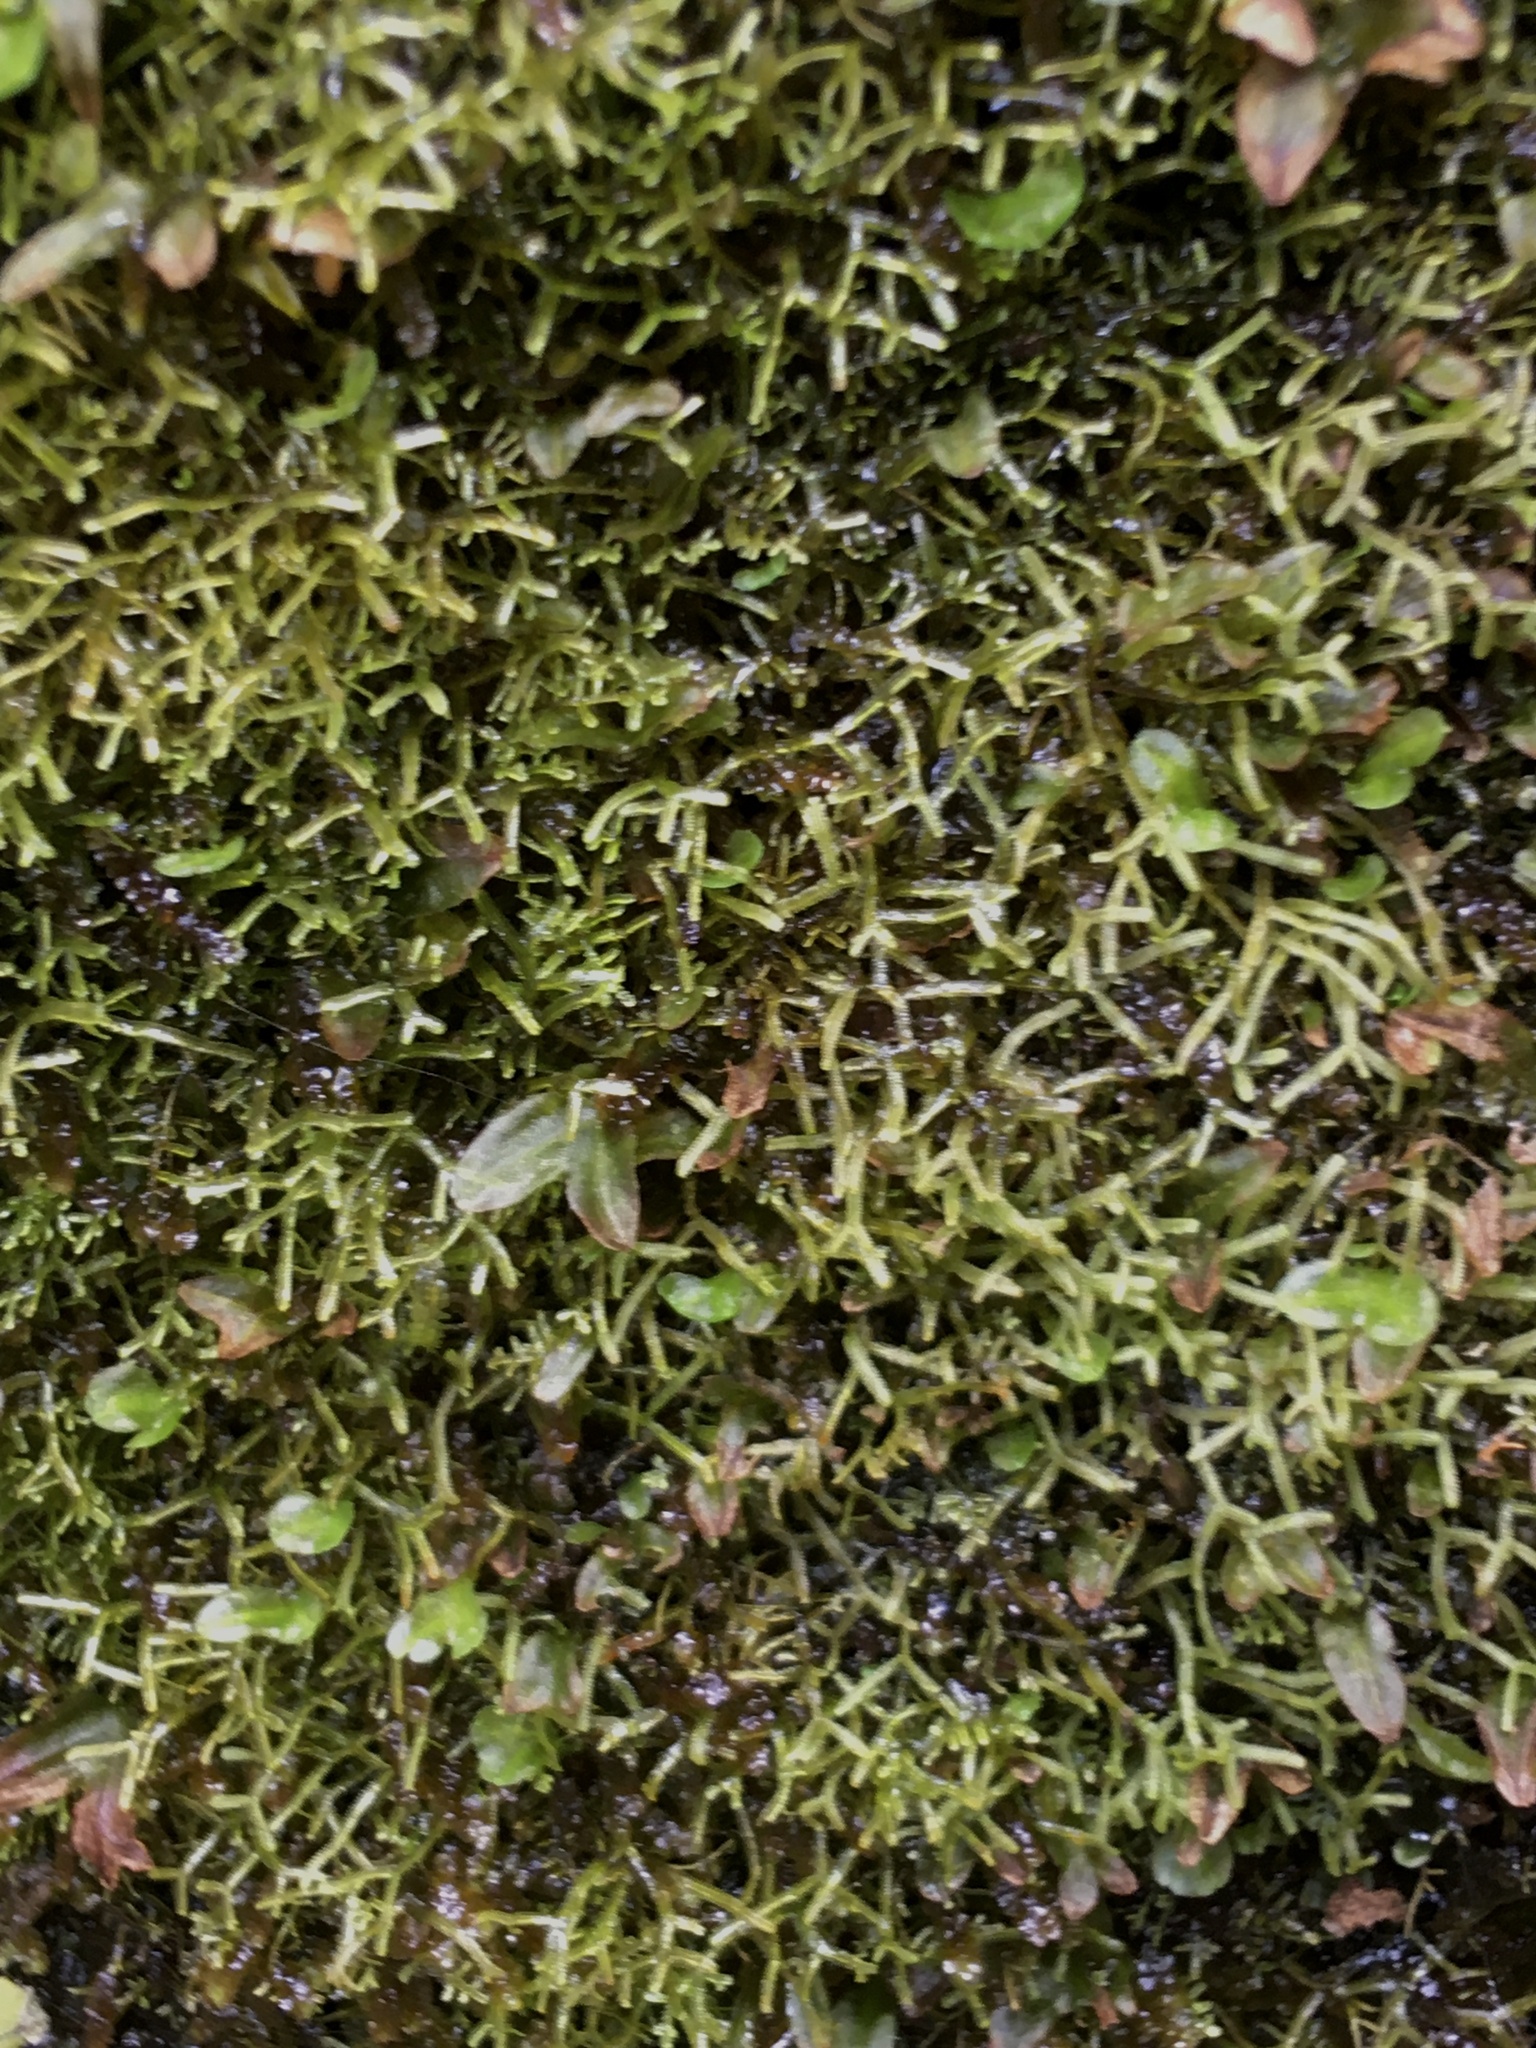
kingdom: Plantae
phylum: Marchantiophyta
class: Jungermanniopsida
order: Jungermanniales
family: Lepidoziaceae
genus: Lepidozia
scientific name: Lepidozia cupressina
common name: Rock fingerwort
